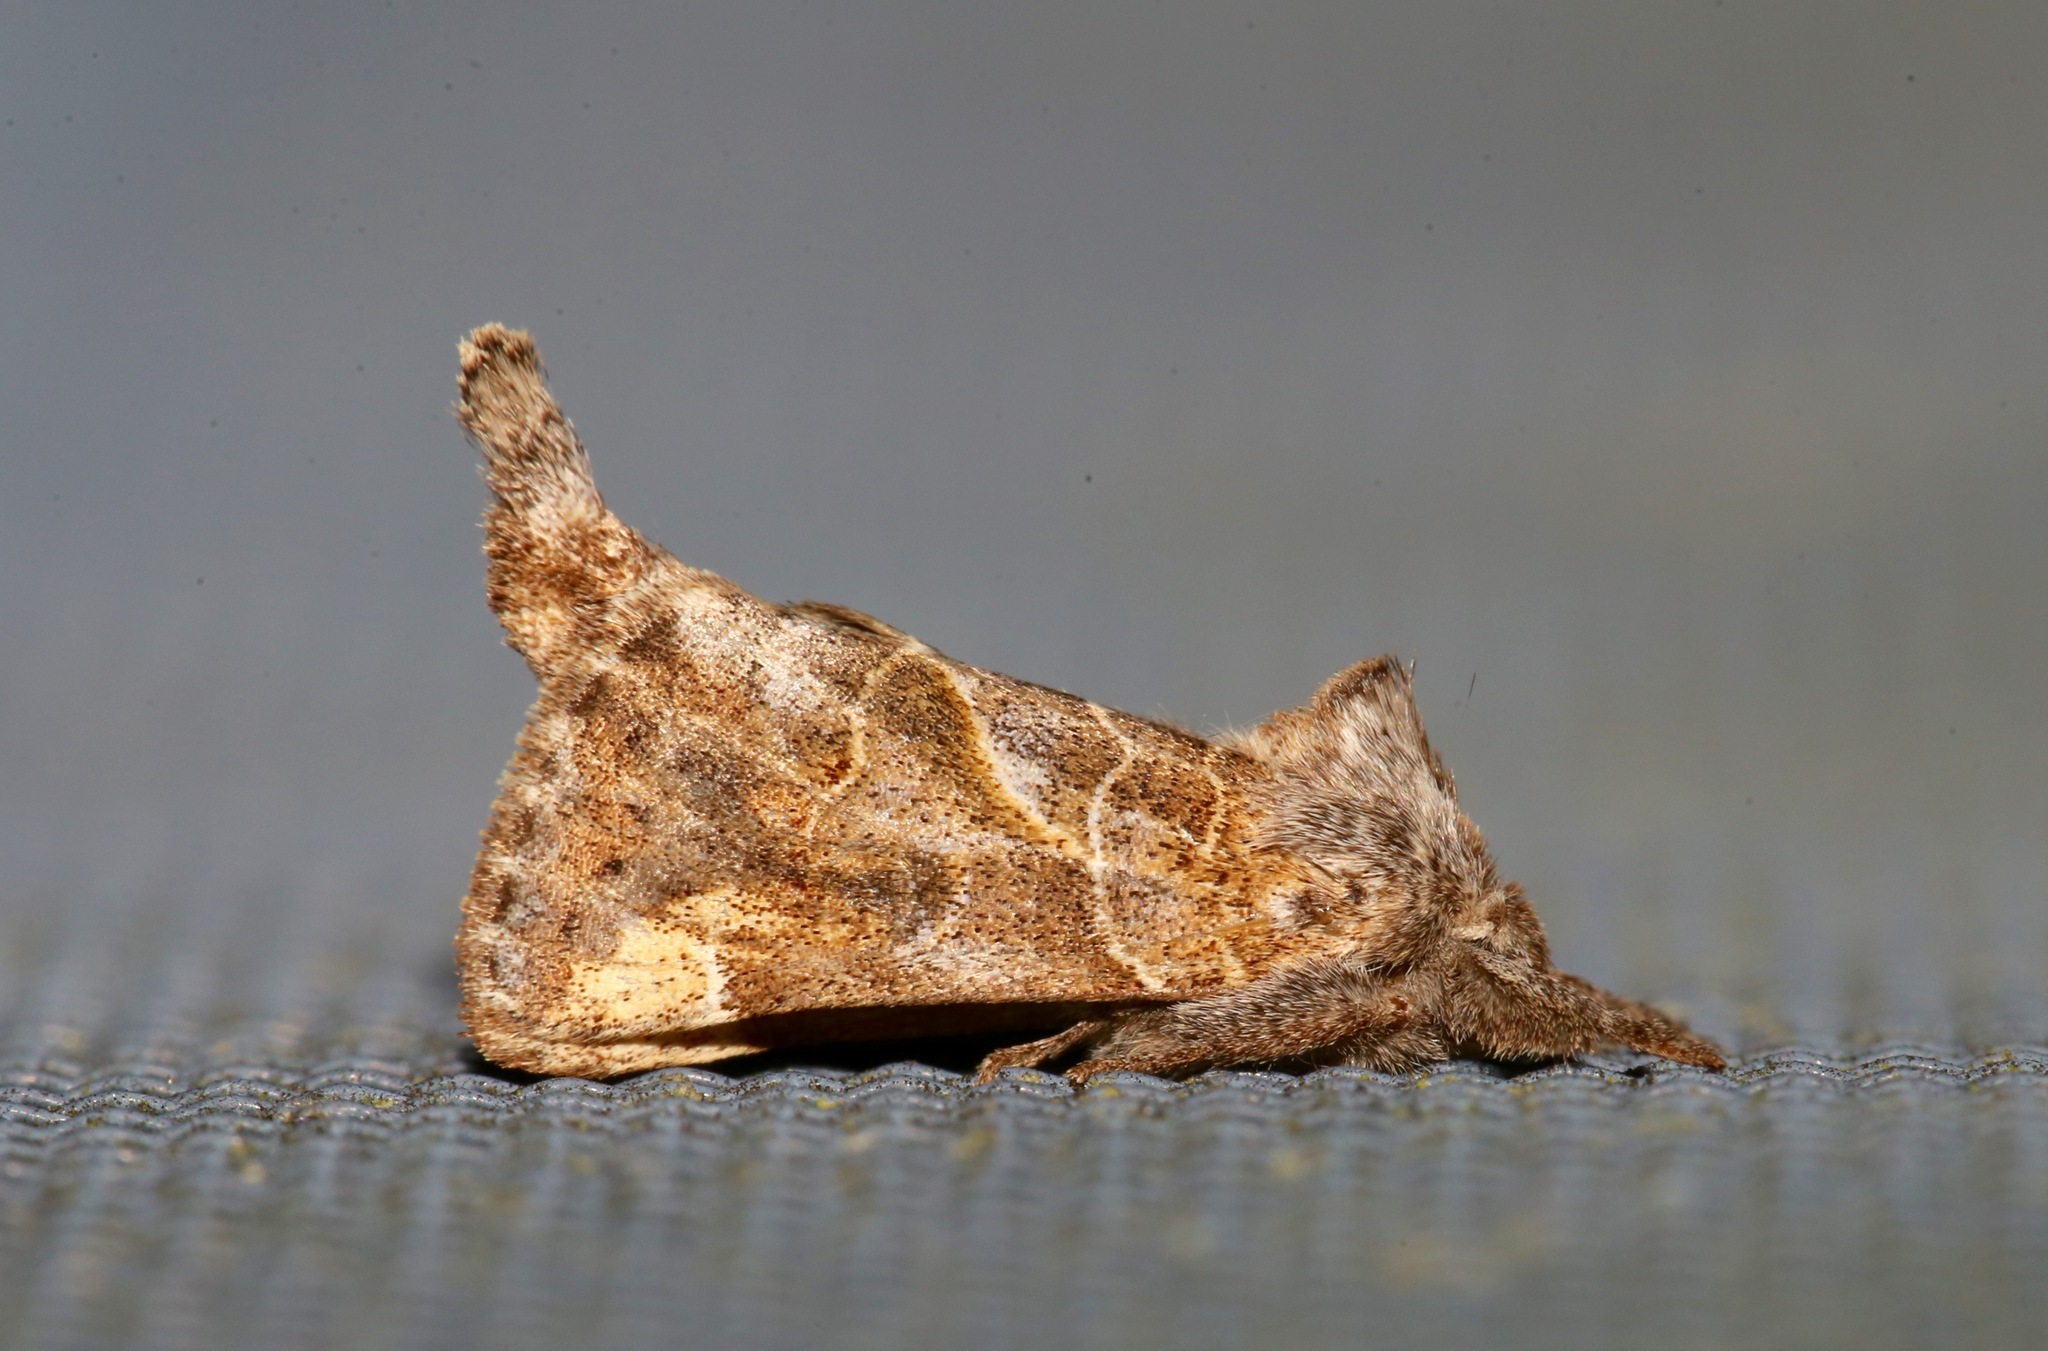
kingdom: Animalia
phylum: Arthropoda
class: Insecta
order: Lepidoptera
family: Notodontidae
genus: Clostera
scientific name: Clostera strigosa
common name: Striped chocolate-tip moth
